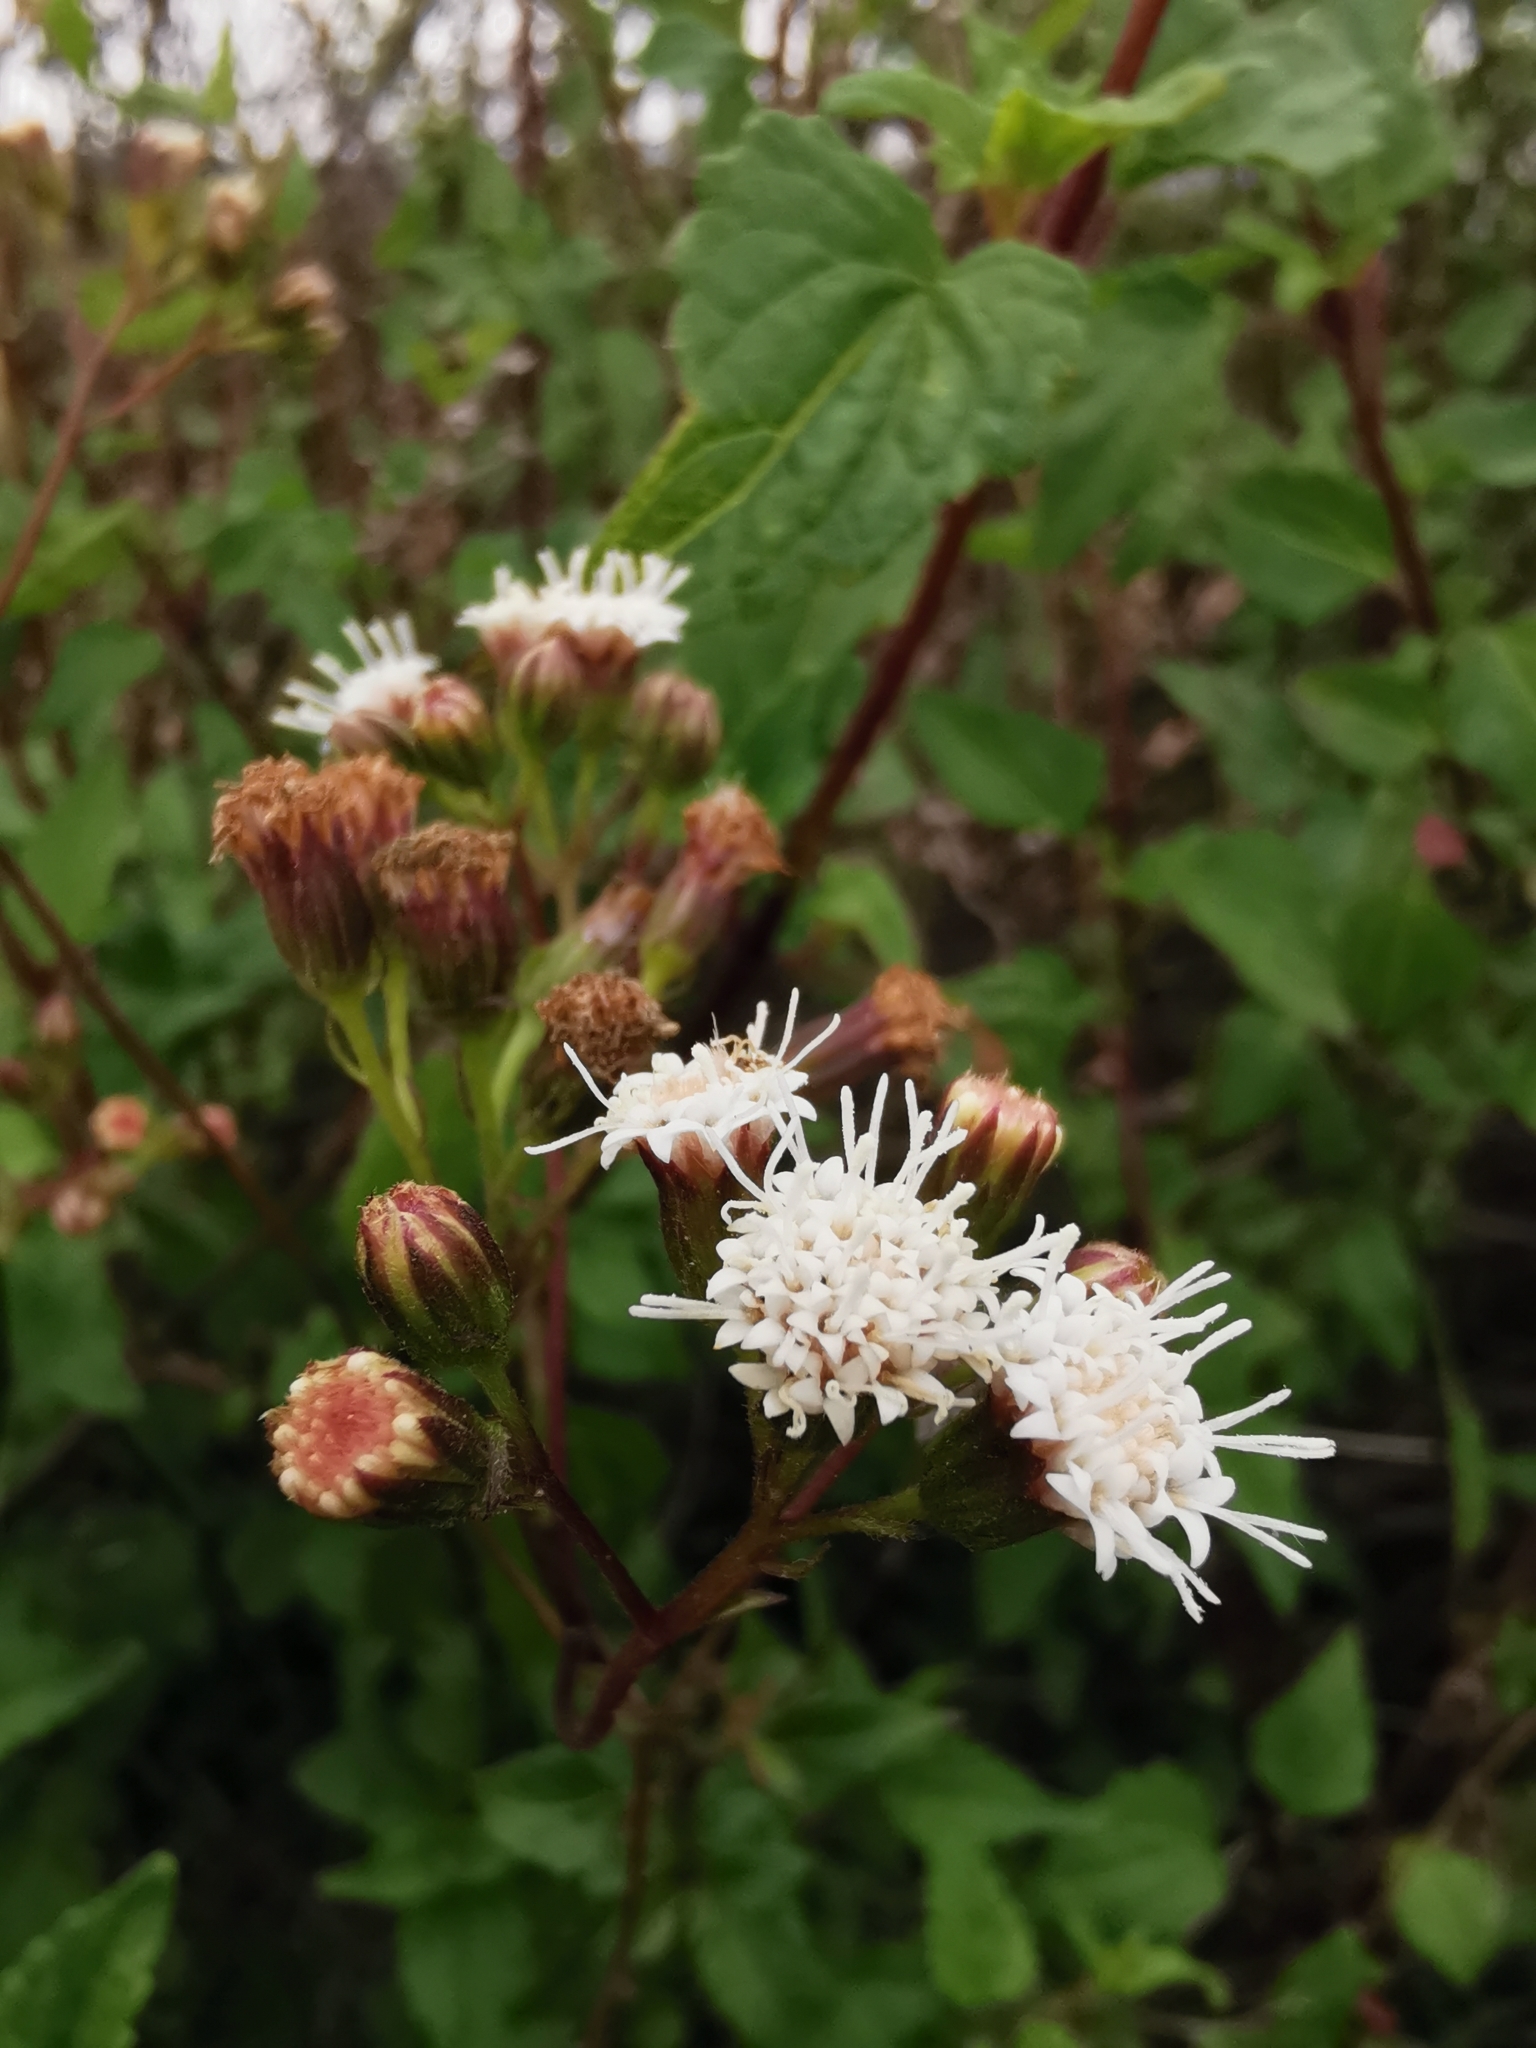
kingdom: Plantae
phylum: Tracheophyta
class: Magnoliopsida
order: Asterales
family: Asteraceae
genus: Ageratina
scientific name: Ageratina glechonophylla
